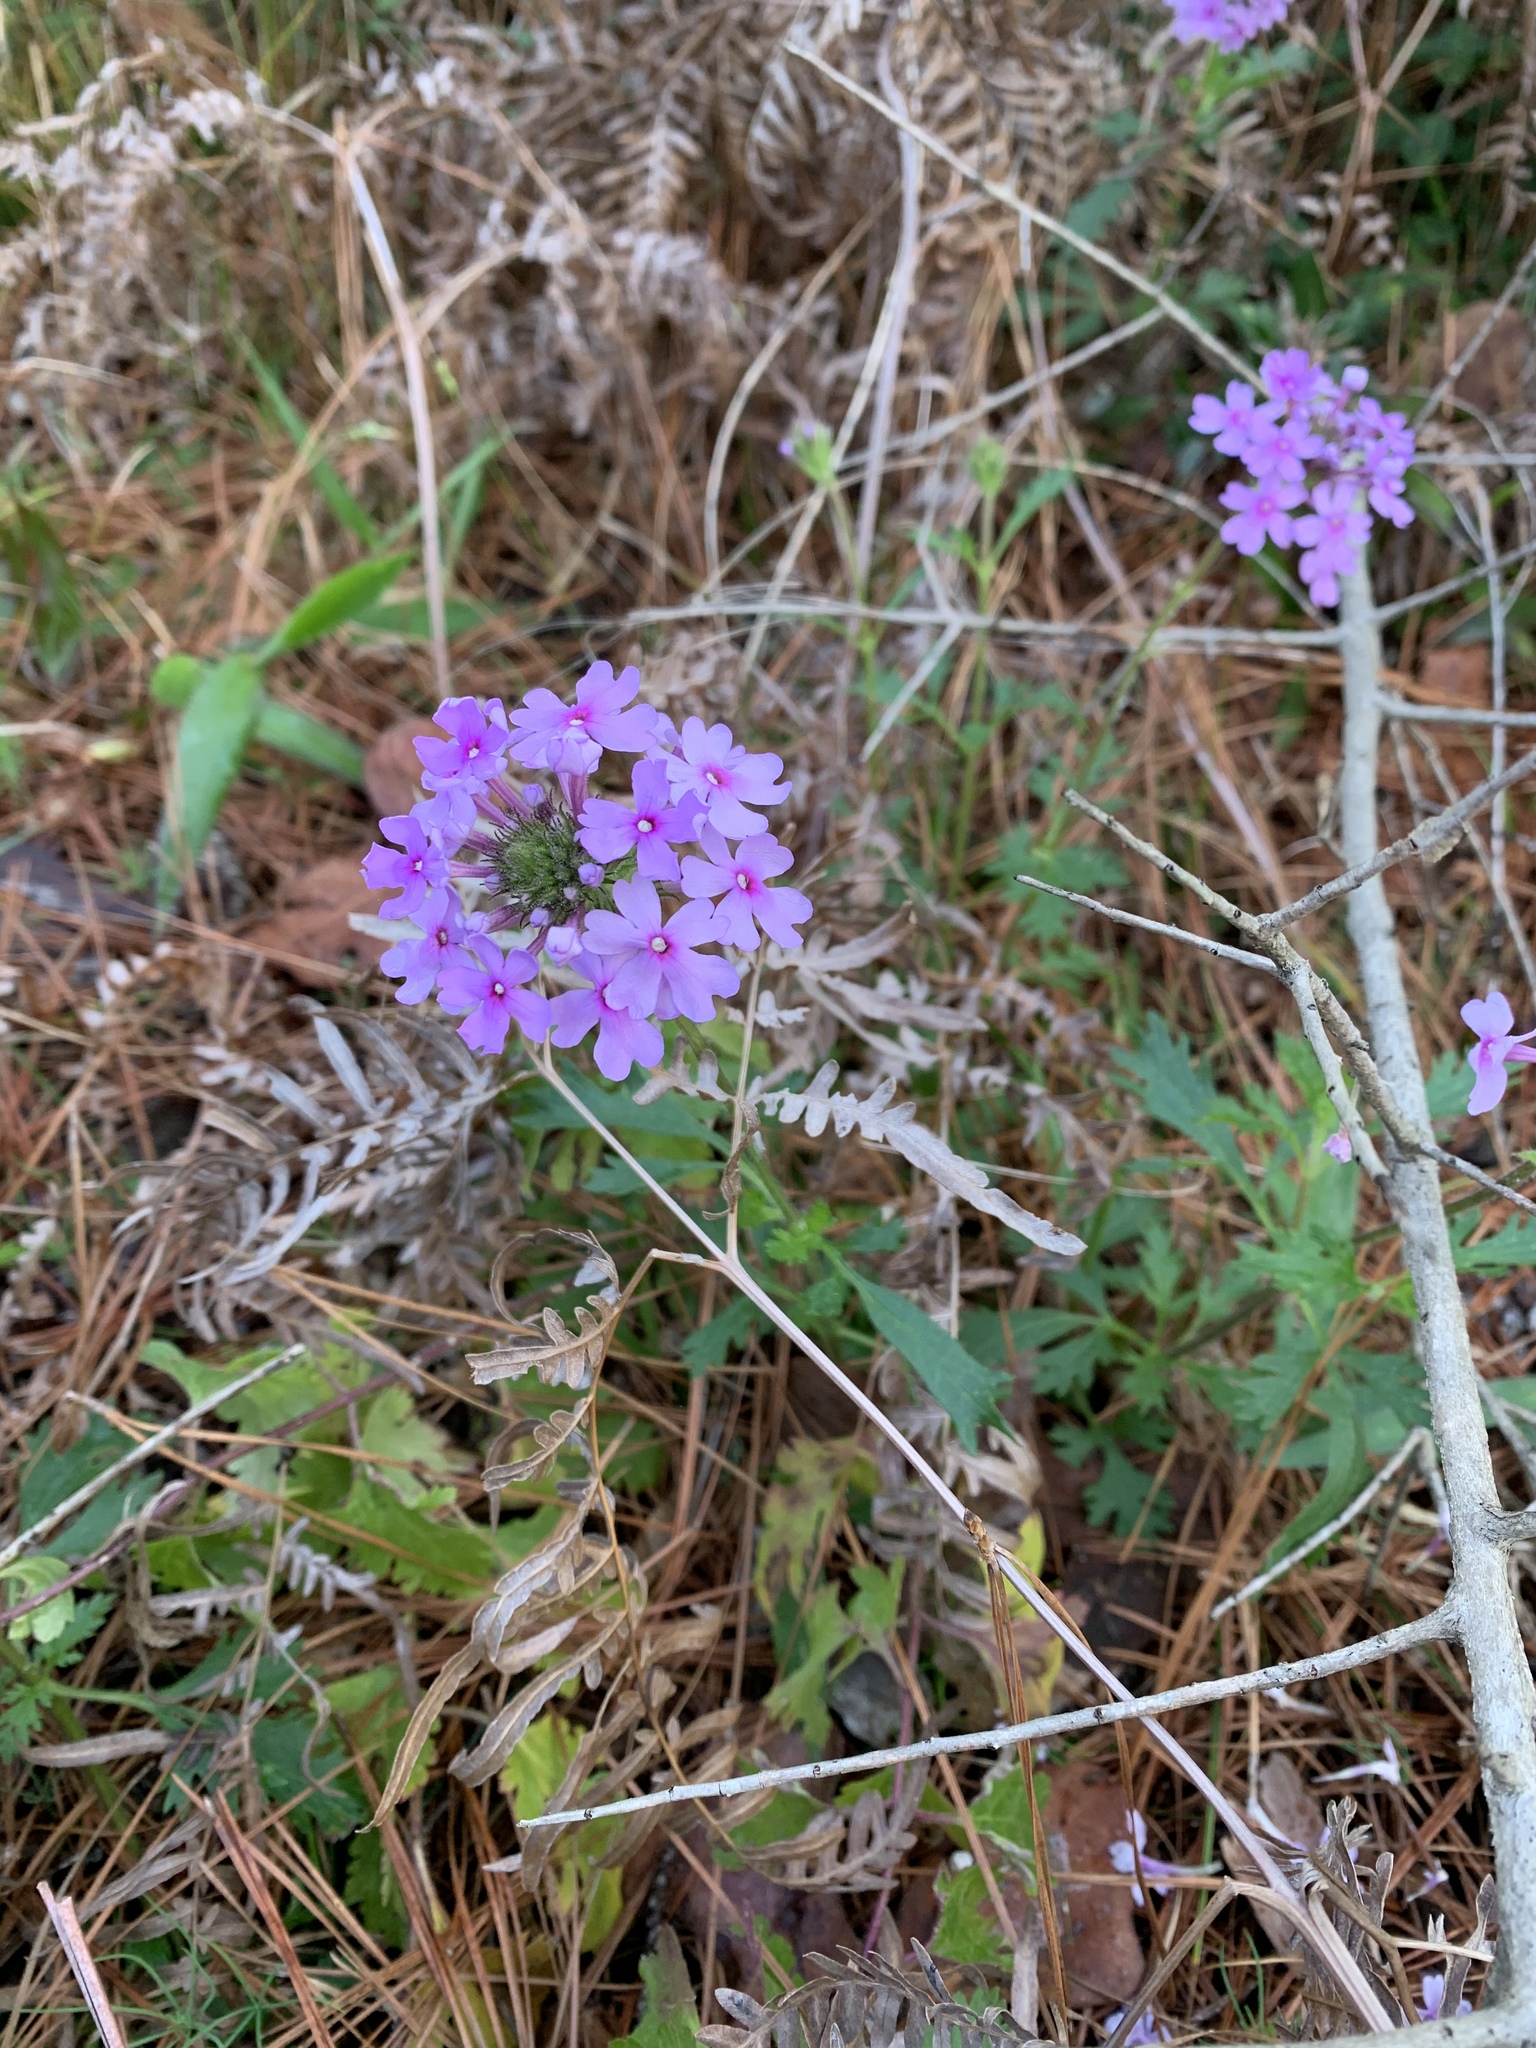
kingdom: Plantae
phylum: Tracheophyta
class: Magnoliopsida
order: Lamiales
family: Verbenaceae
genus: Verbena
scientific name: Verbena canadensis
